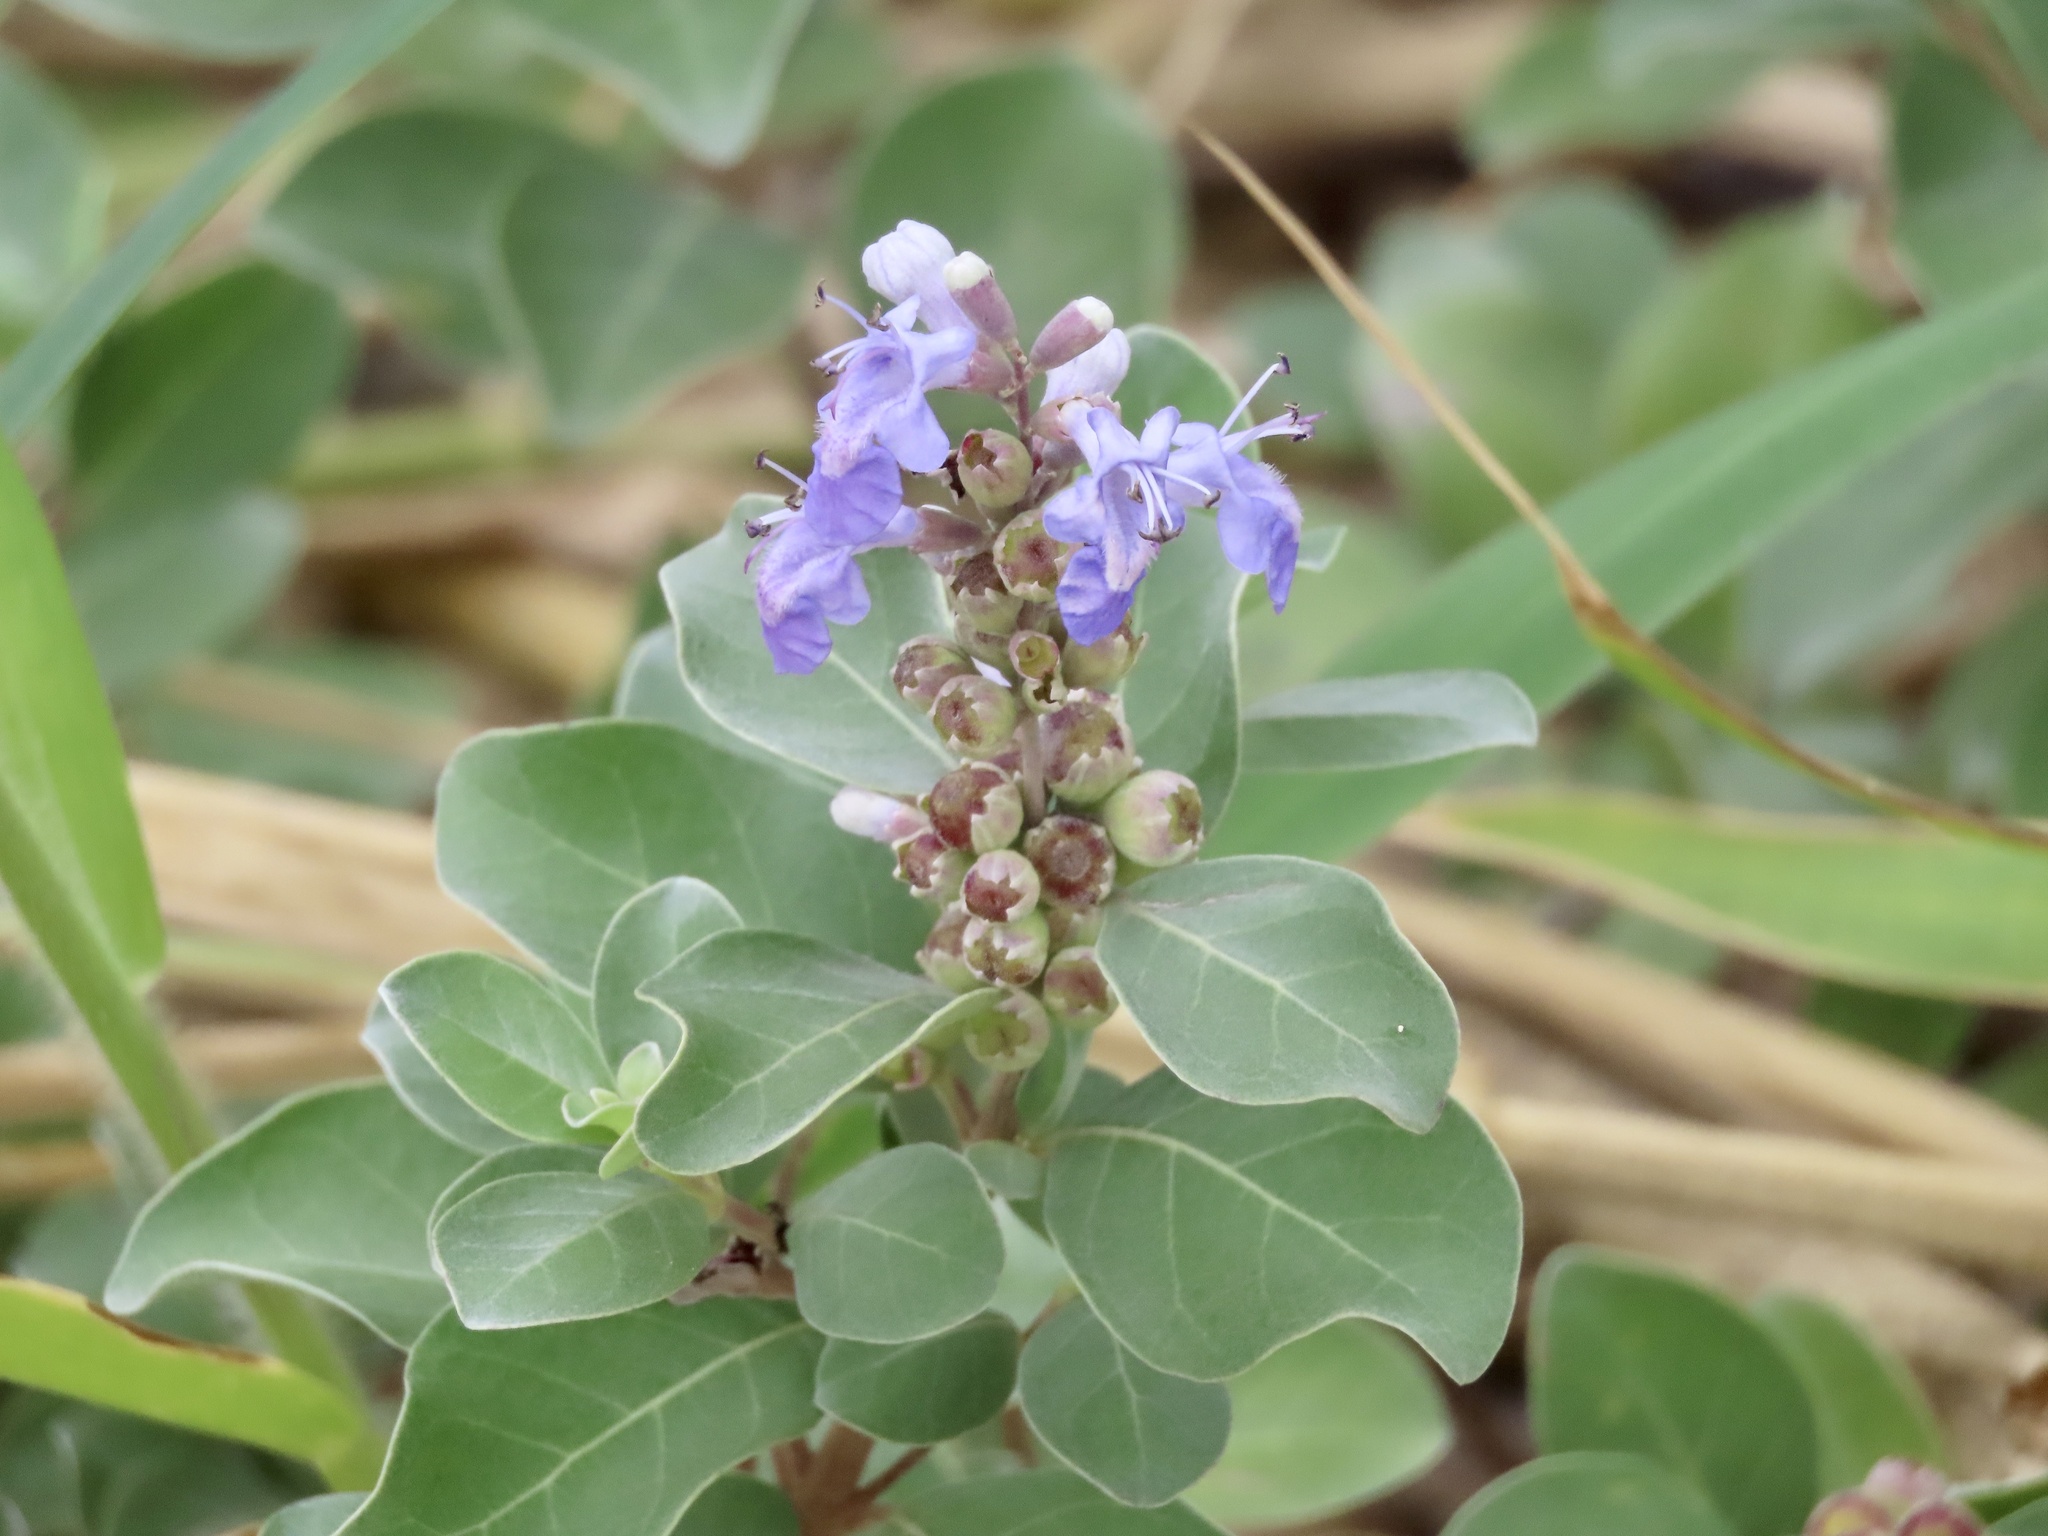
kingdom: Plantae
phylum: Tracheophyta
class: Magnoliopsida
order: Lamiales
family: Lamiaceae
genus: Vitex
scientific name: Vitex rotundifolia
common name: Beach vitex
